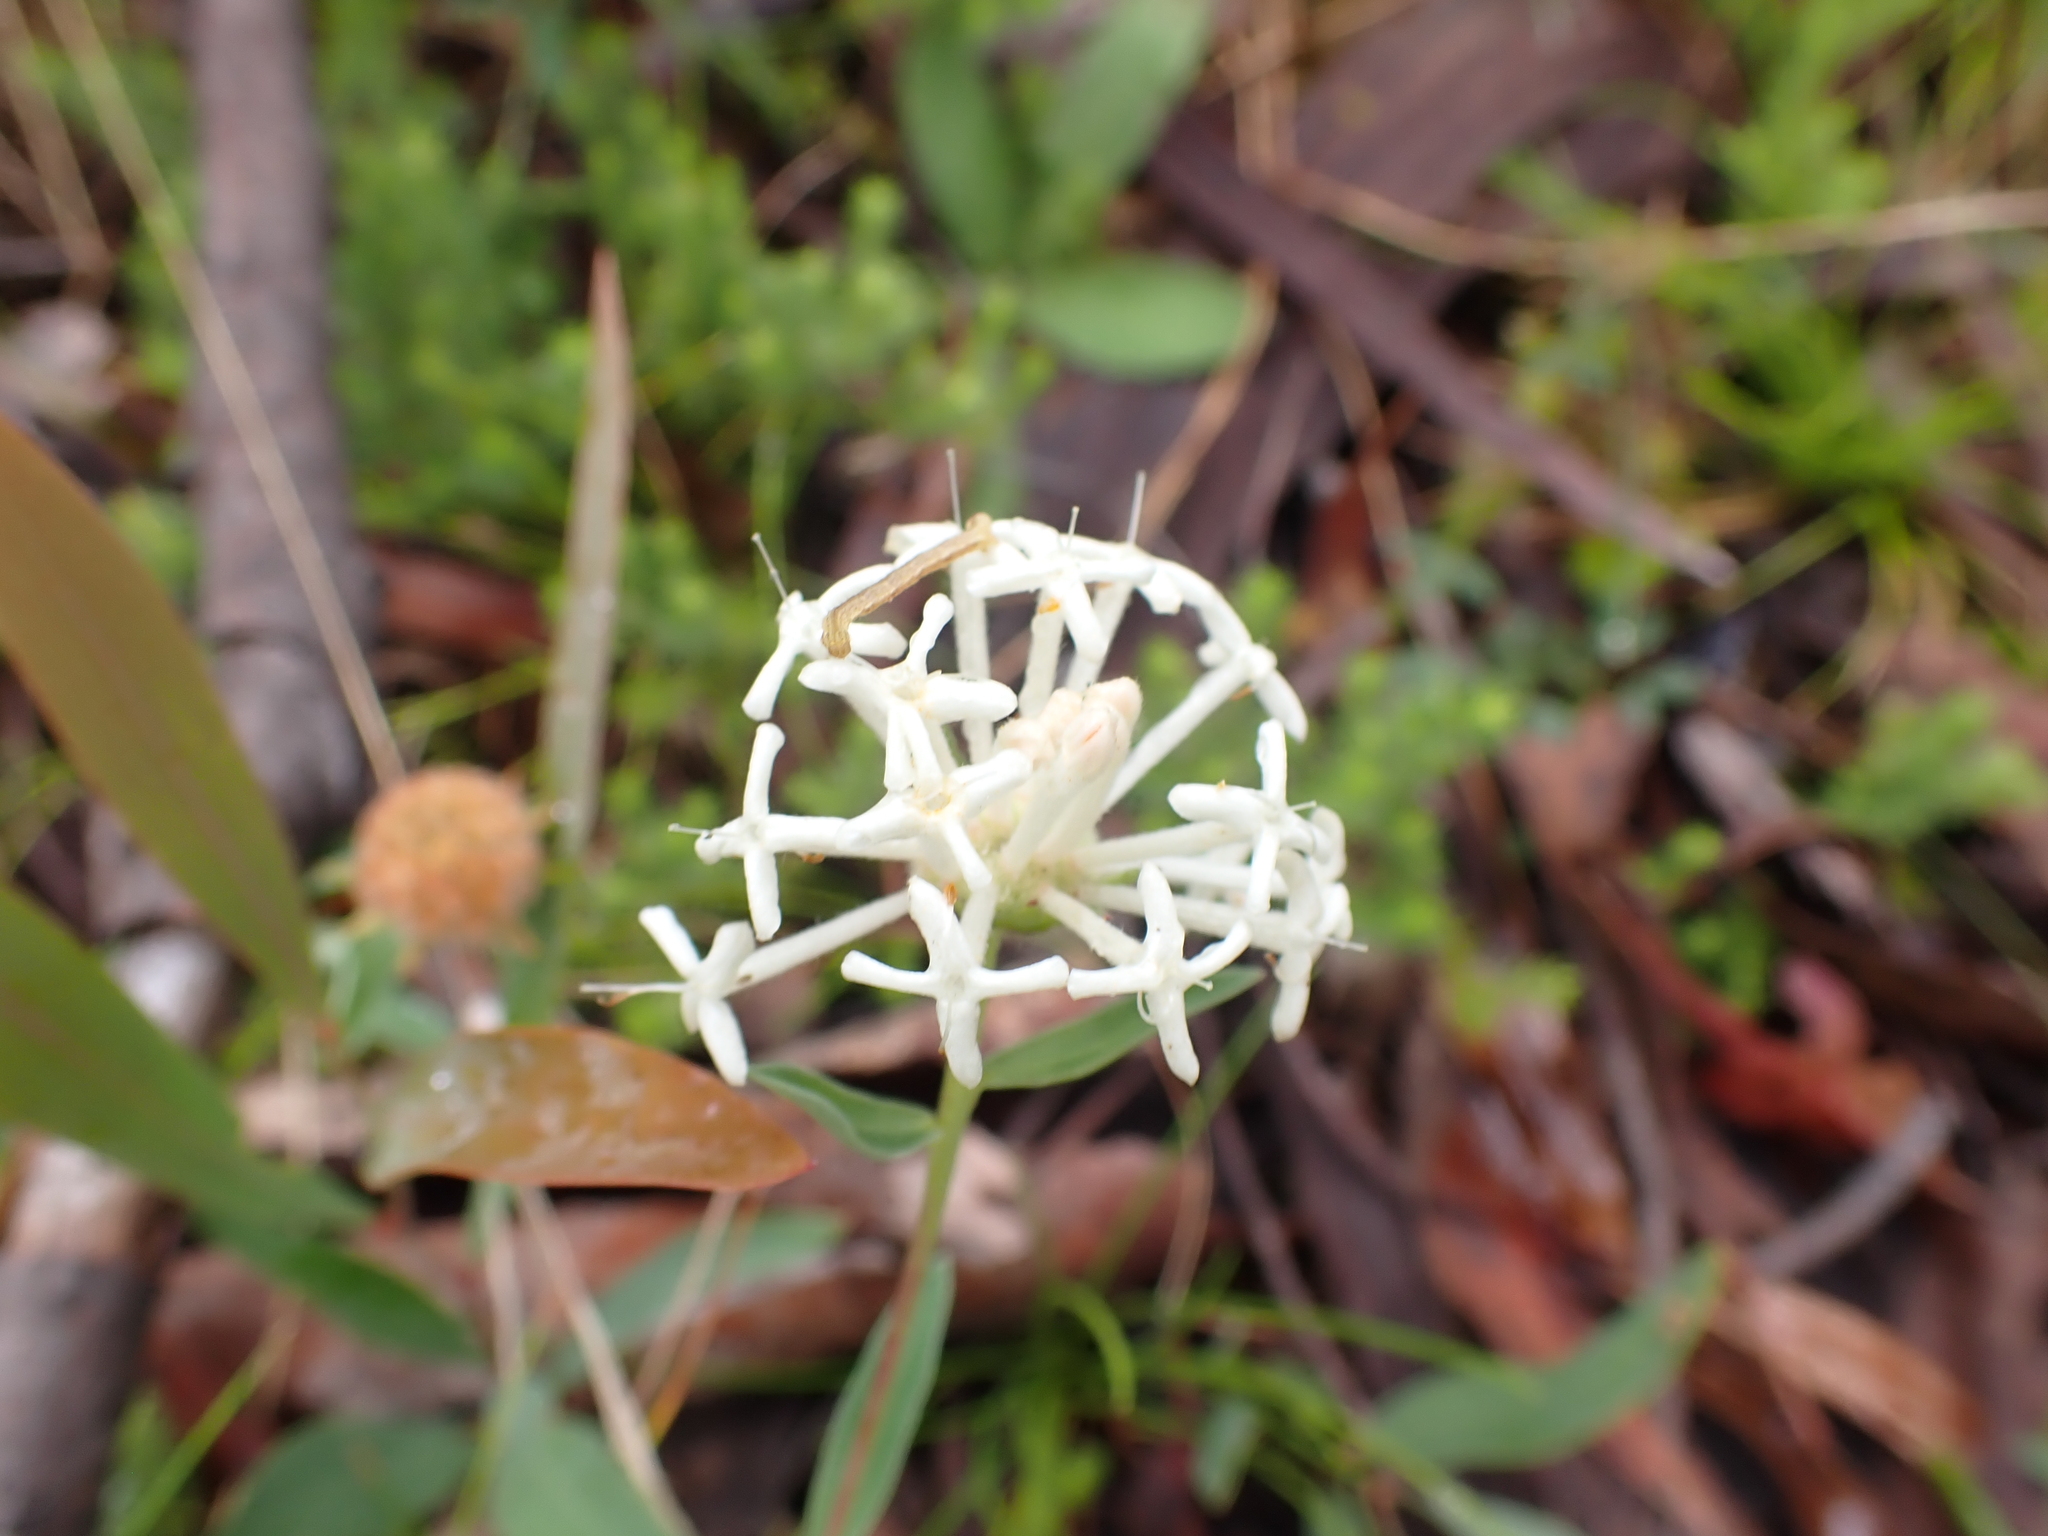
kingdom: Plantae
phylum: Tracheophyta
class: Magnoliopsida
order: Malvales
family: Thymelaeaceae
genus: Pimelea
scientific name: Pimelea treyvaudii
